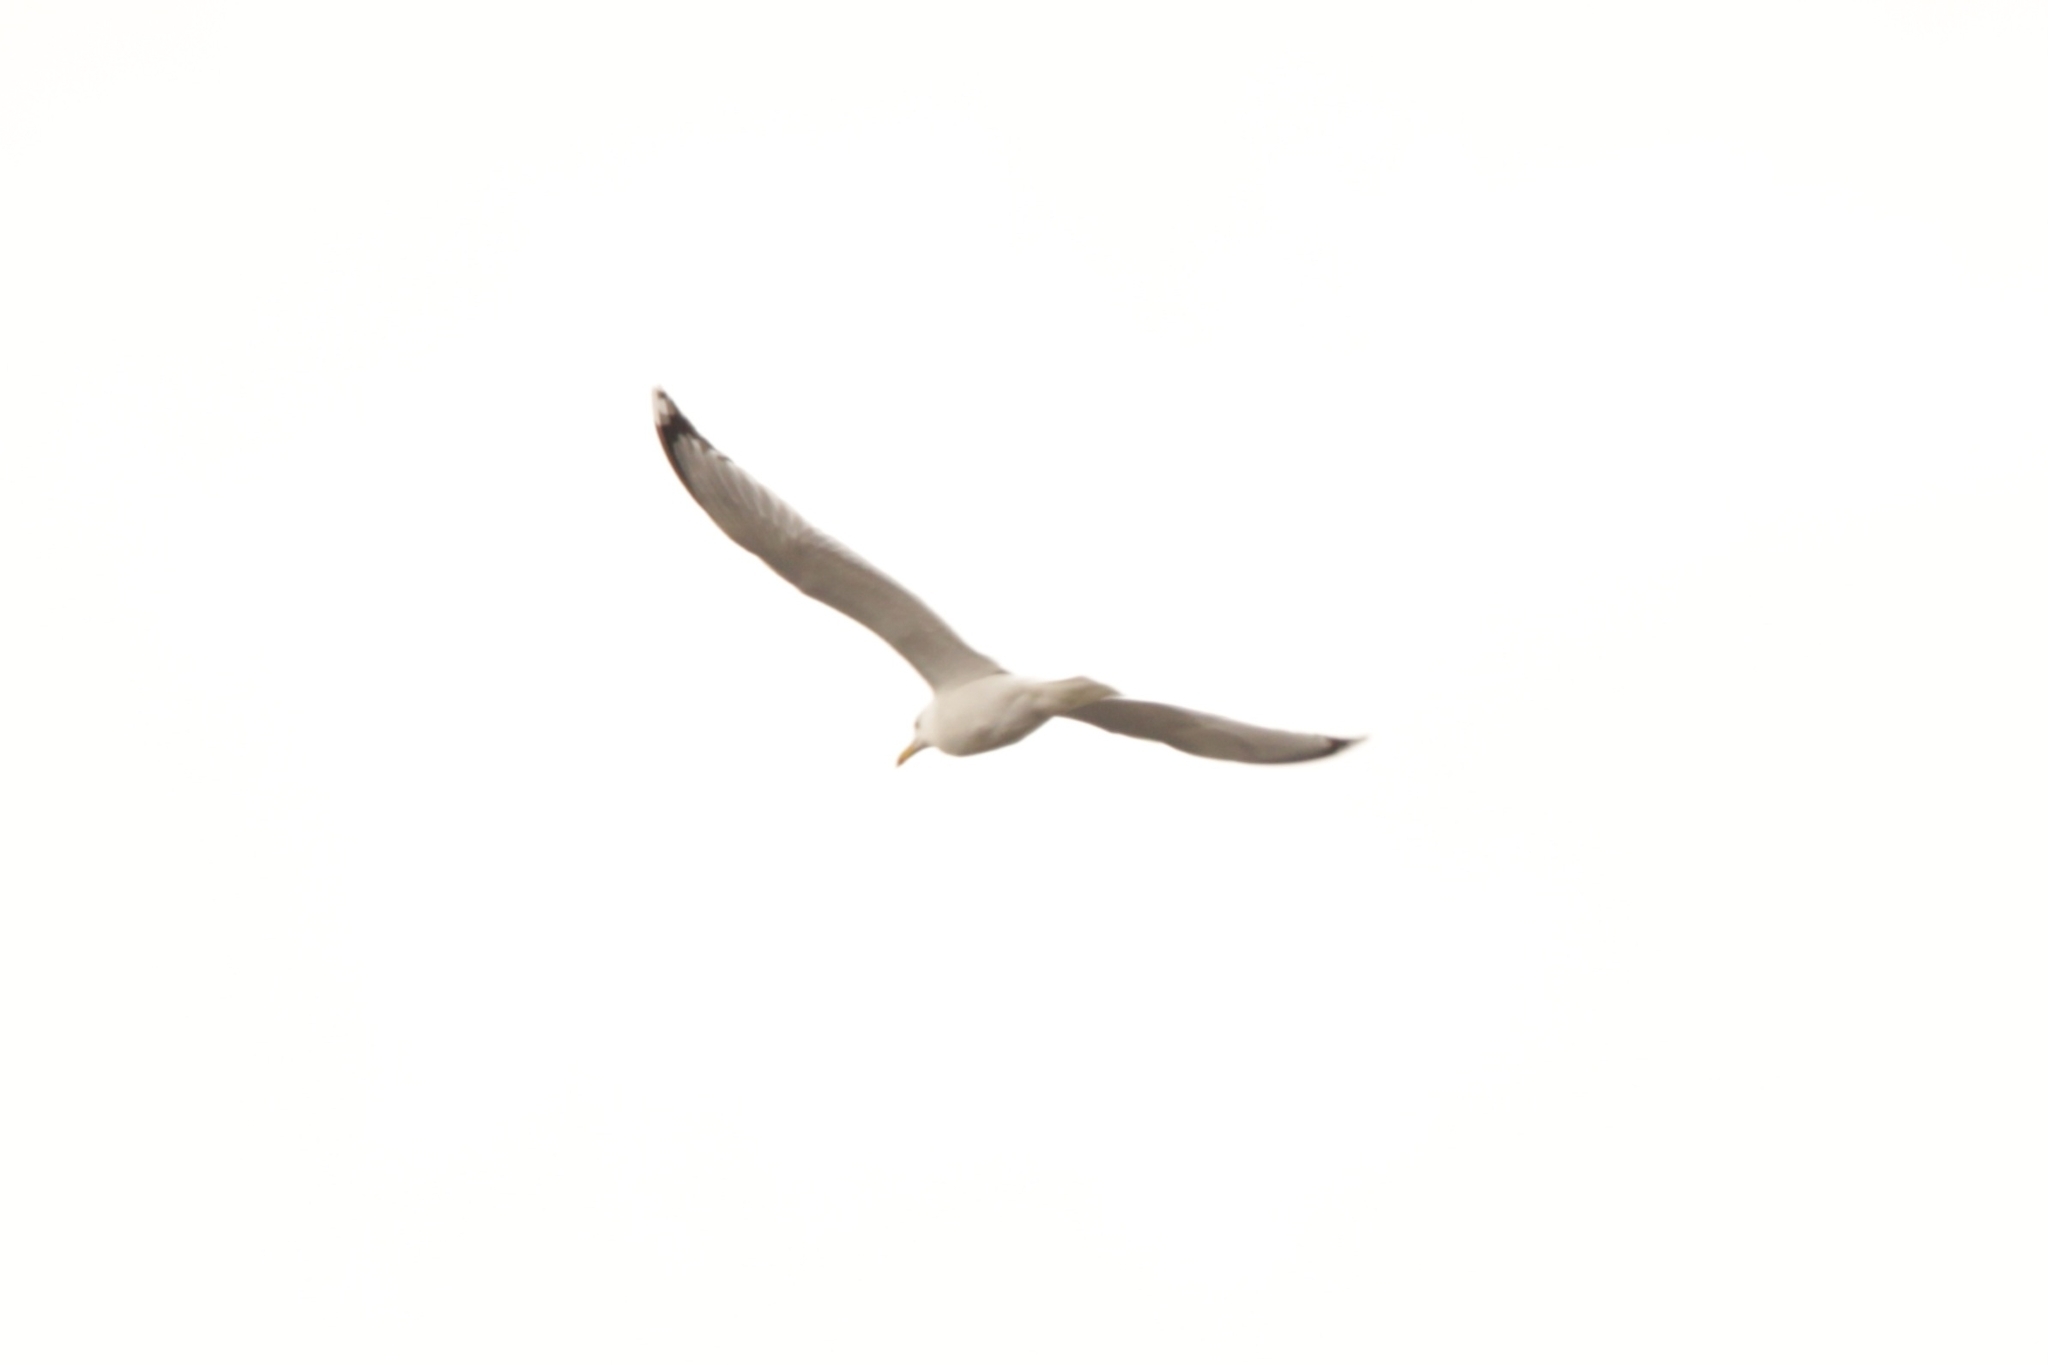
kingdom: Animalia
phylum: Chordata
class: Aves
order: Charadriiformes
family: Laridae
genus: Larus
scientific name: Larus cachinnans
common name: Caspian gull
